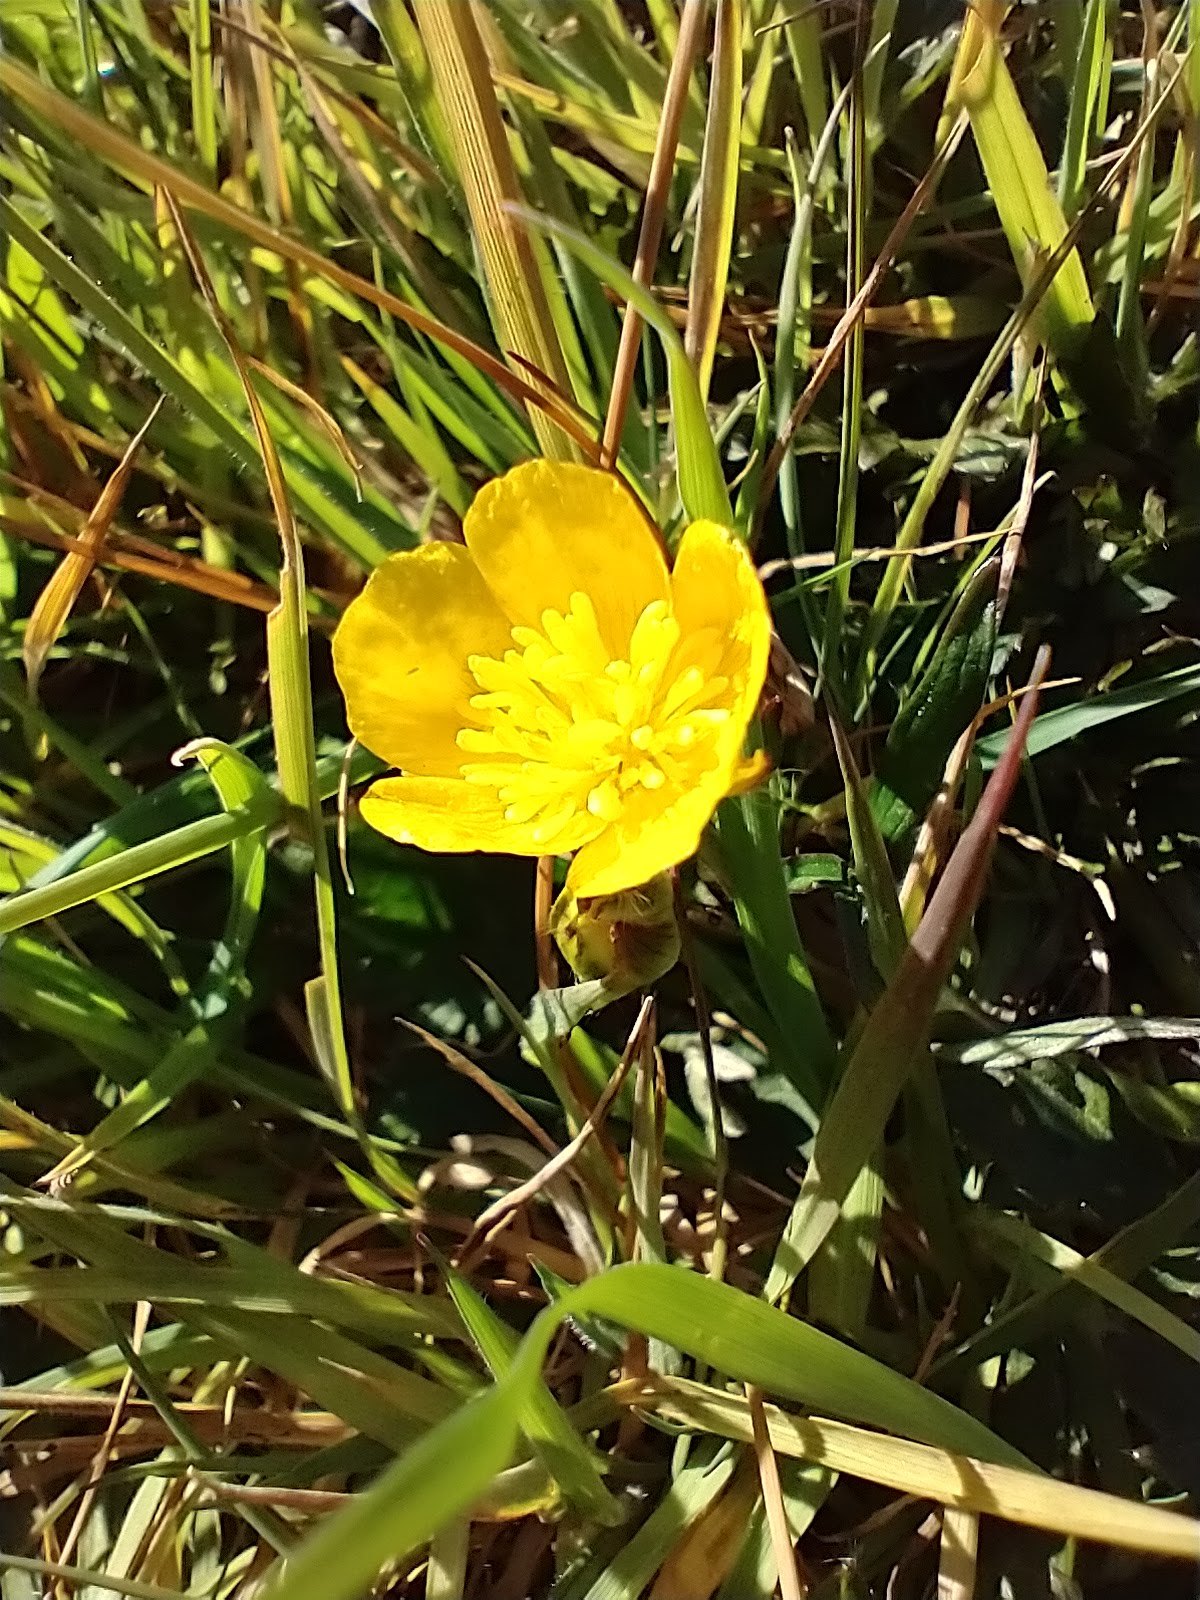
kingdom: Plantae
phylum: Tracheophyta
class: Magnoliopsida
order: Ranunculales
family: Ranunculaceae
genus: Ranunculus
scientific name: Ranunculus repens
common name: Creeping buttercup
